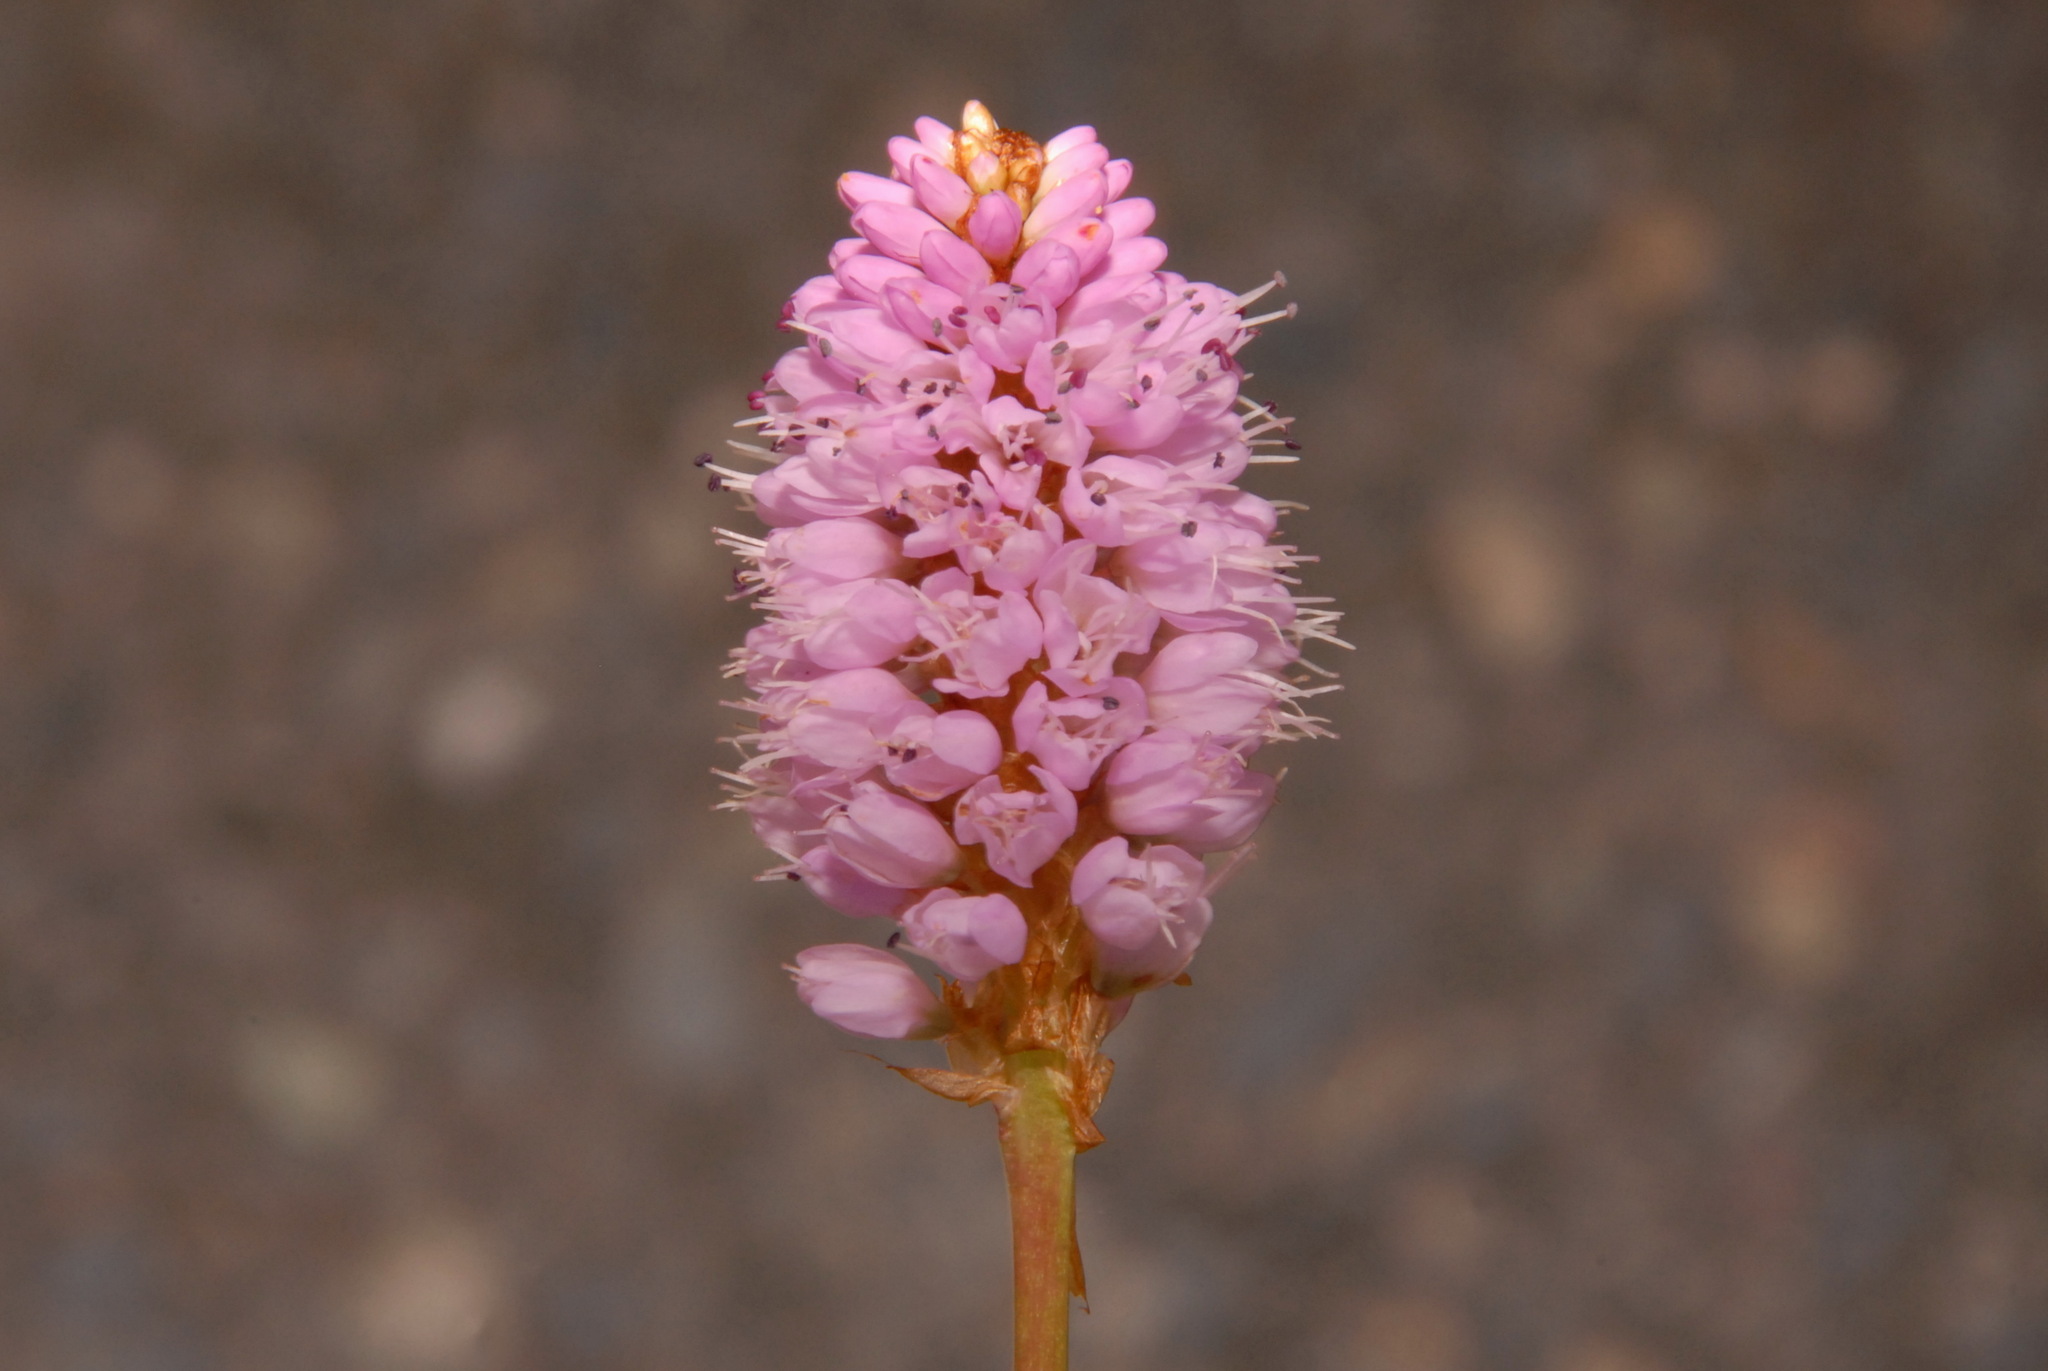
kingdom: Plantae
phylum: Tracheophyta
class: Magnoliopsida
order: Caryophyllales
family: Polygonaceae
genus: Bistorta
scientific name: Bistorta plumosa
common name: Meadow bistort
